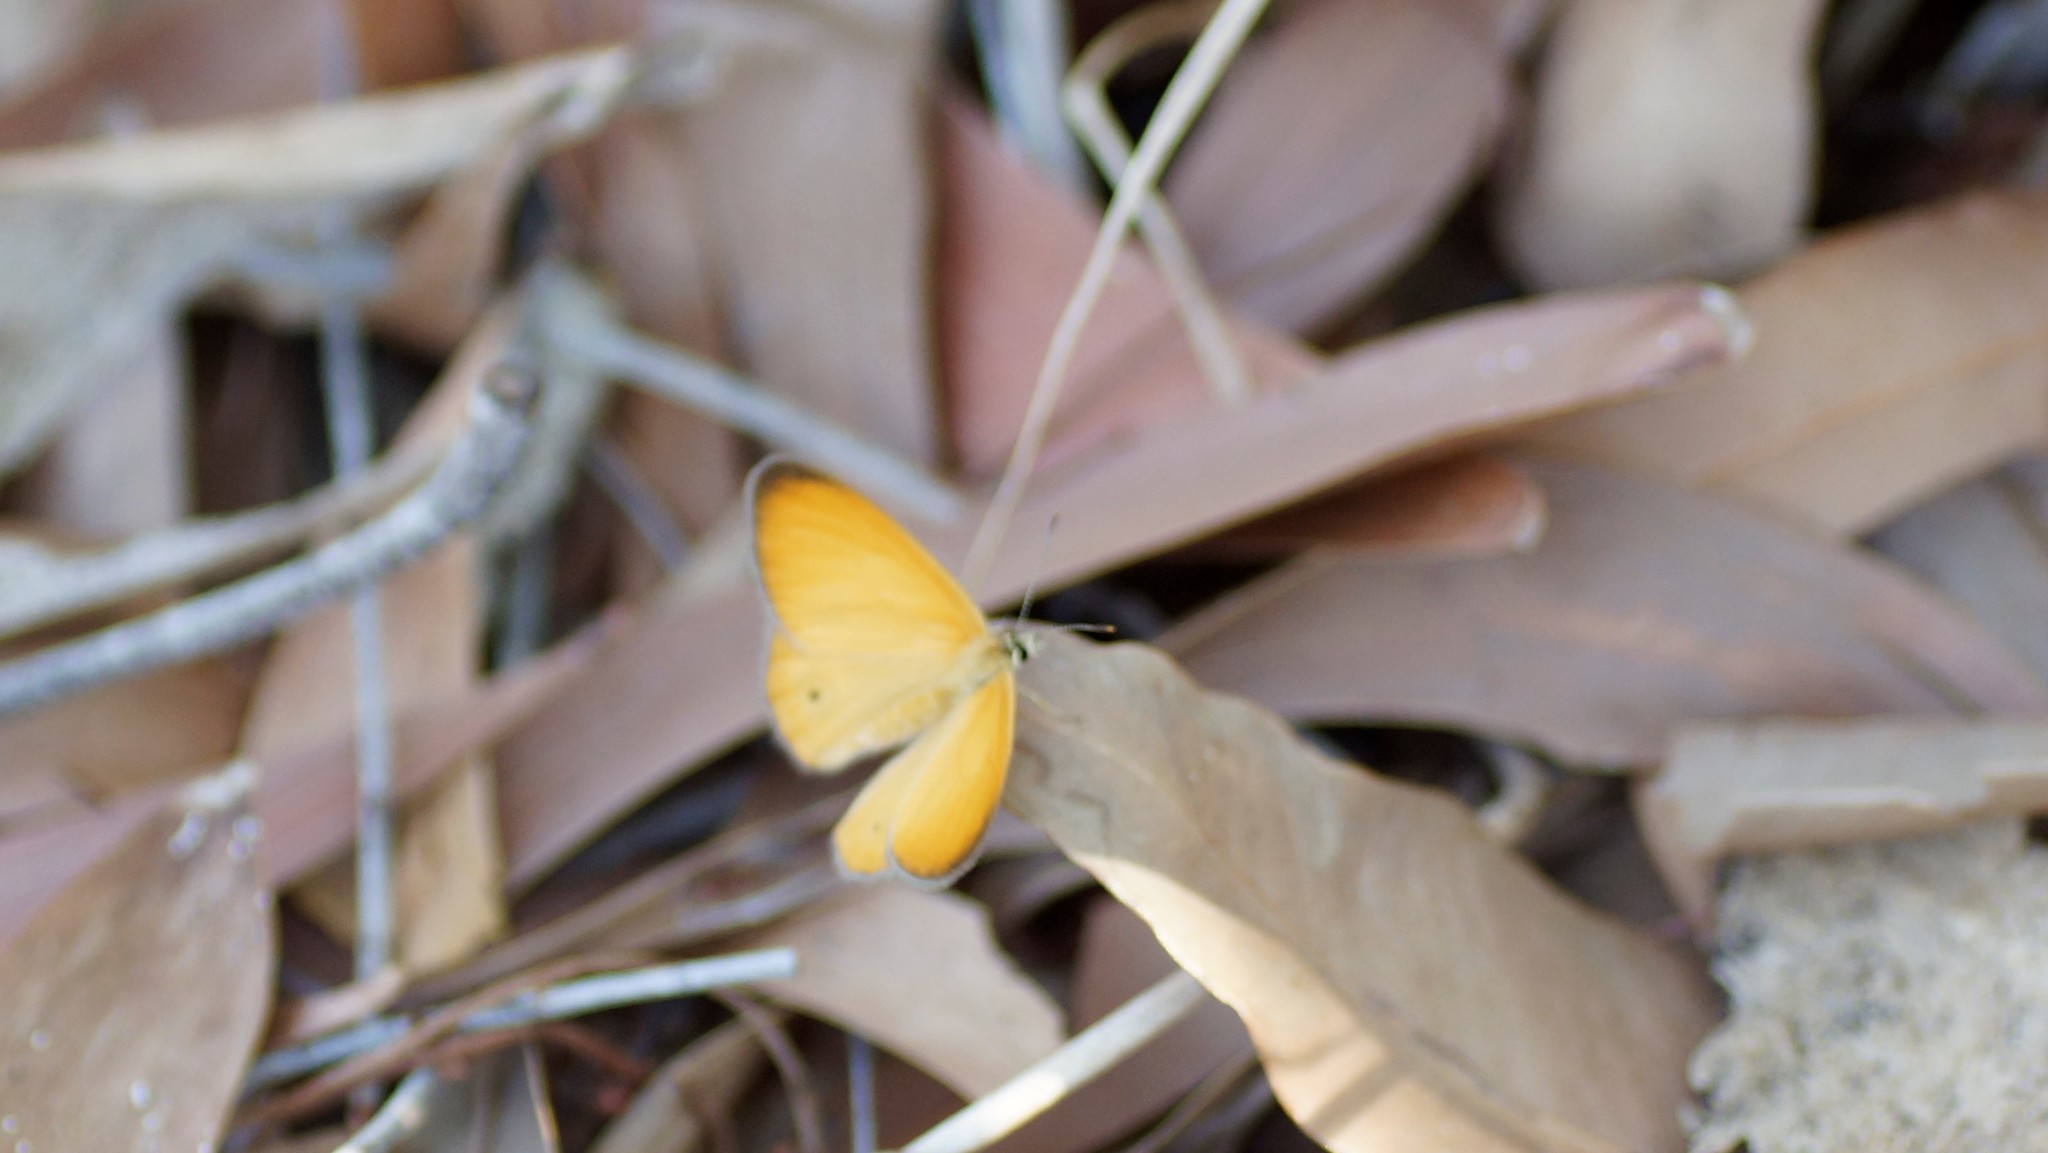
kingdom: Animalia
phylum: Arthropoda
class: Insecta
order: Lepidoptera
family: Nymphalidae
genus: Hypocysta
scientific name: Hypocysta adiante
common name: Orange ringlet
